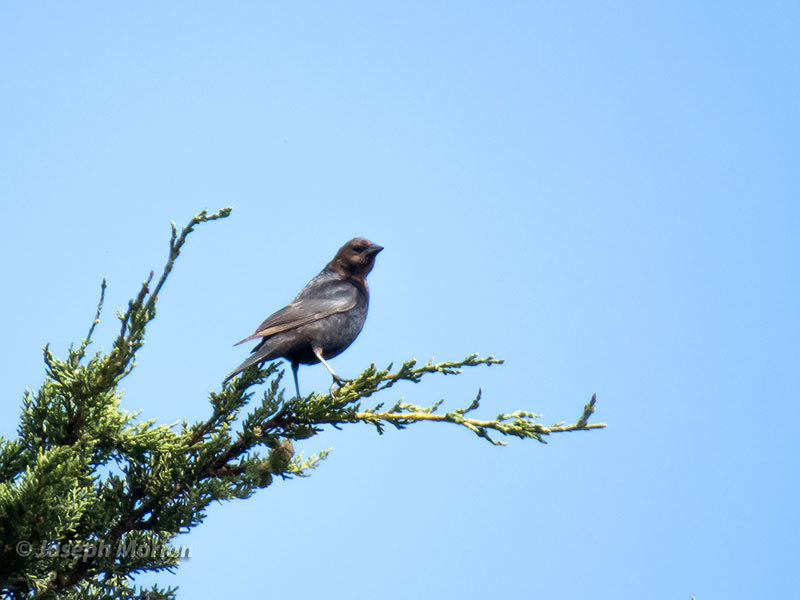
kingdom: Animalia
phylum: Chordata
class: Aves
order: Passeriformes
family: Icteridae
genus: Molothrus
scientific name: Molothrus ater
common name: Brown-headed cowbird
